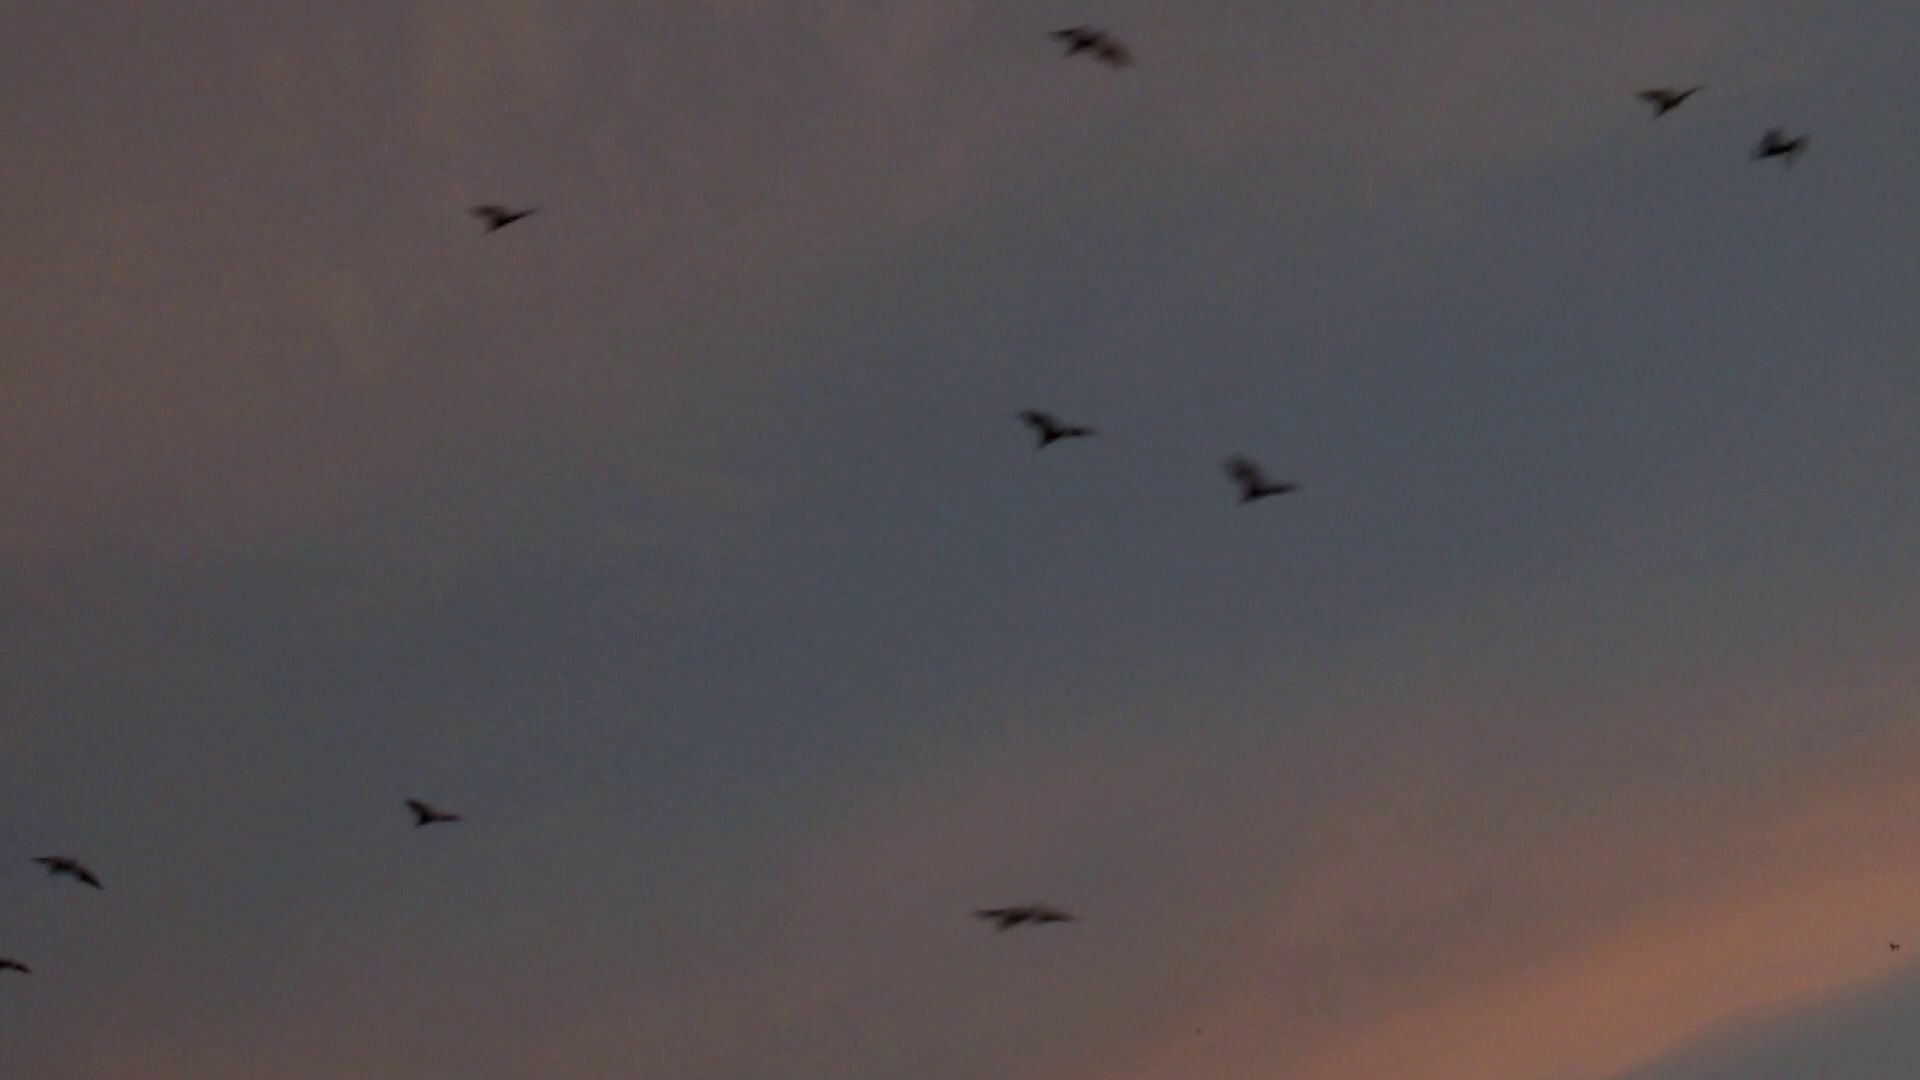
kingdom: Animalia
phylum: Chordata
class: Mammalia
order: Chiroptera
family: Pteropodidae
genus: Eidolon
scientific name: Eidolon helvum
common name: Straw-colored fruit bat
